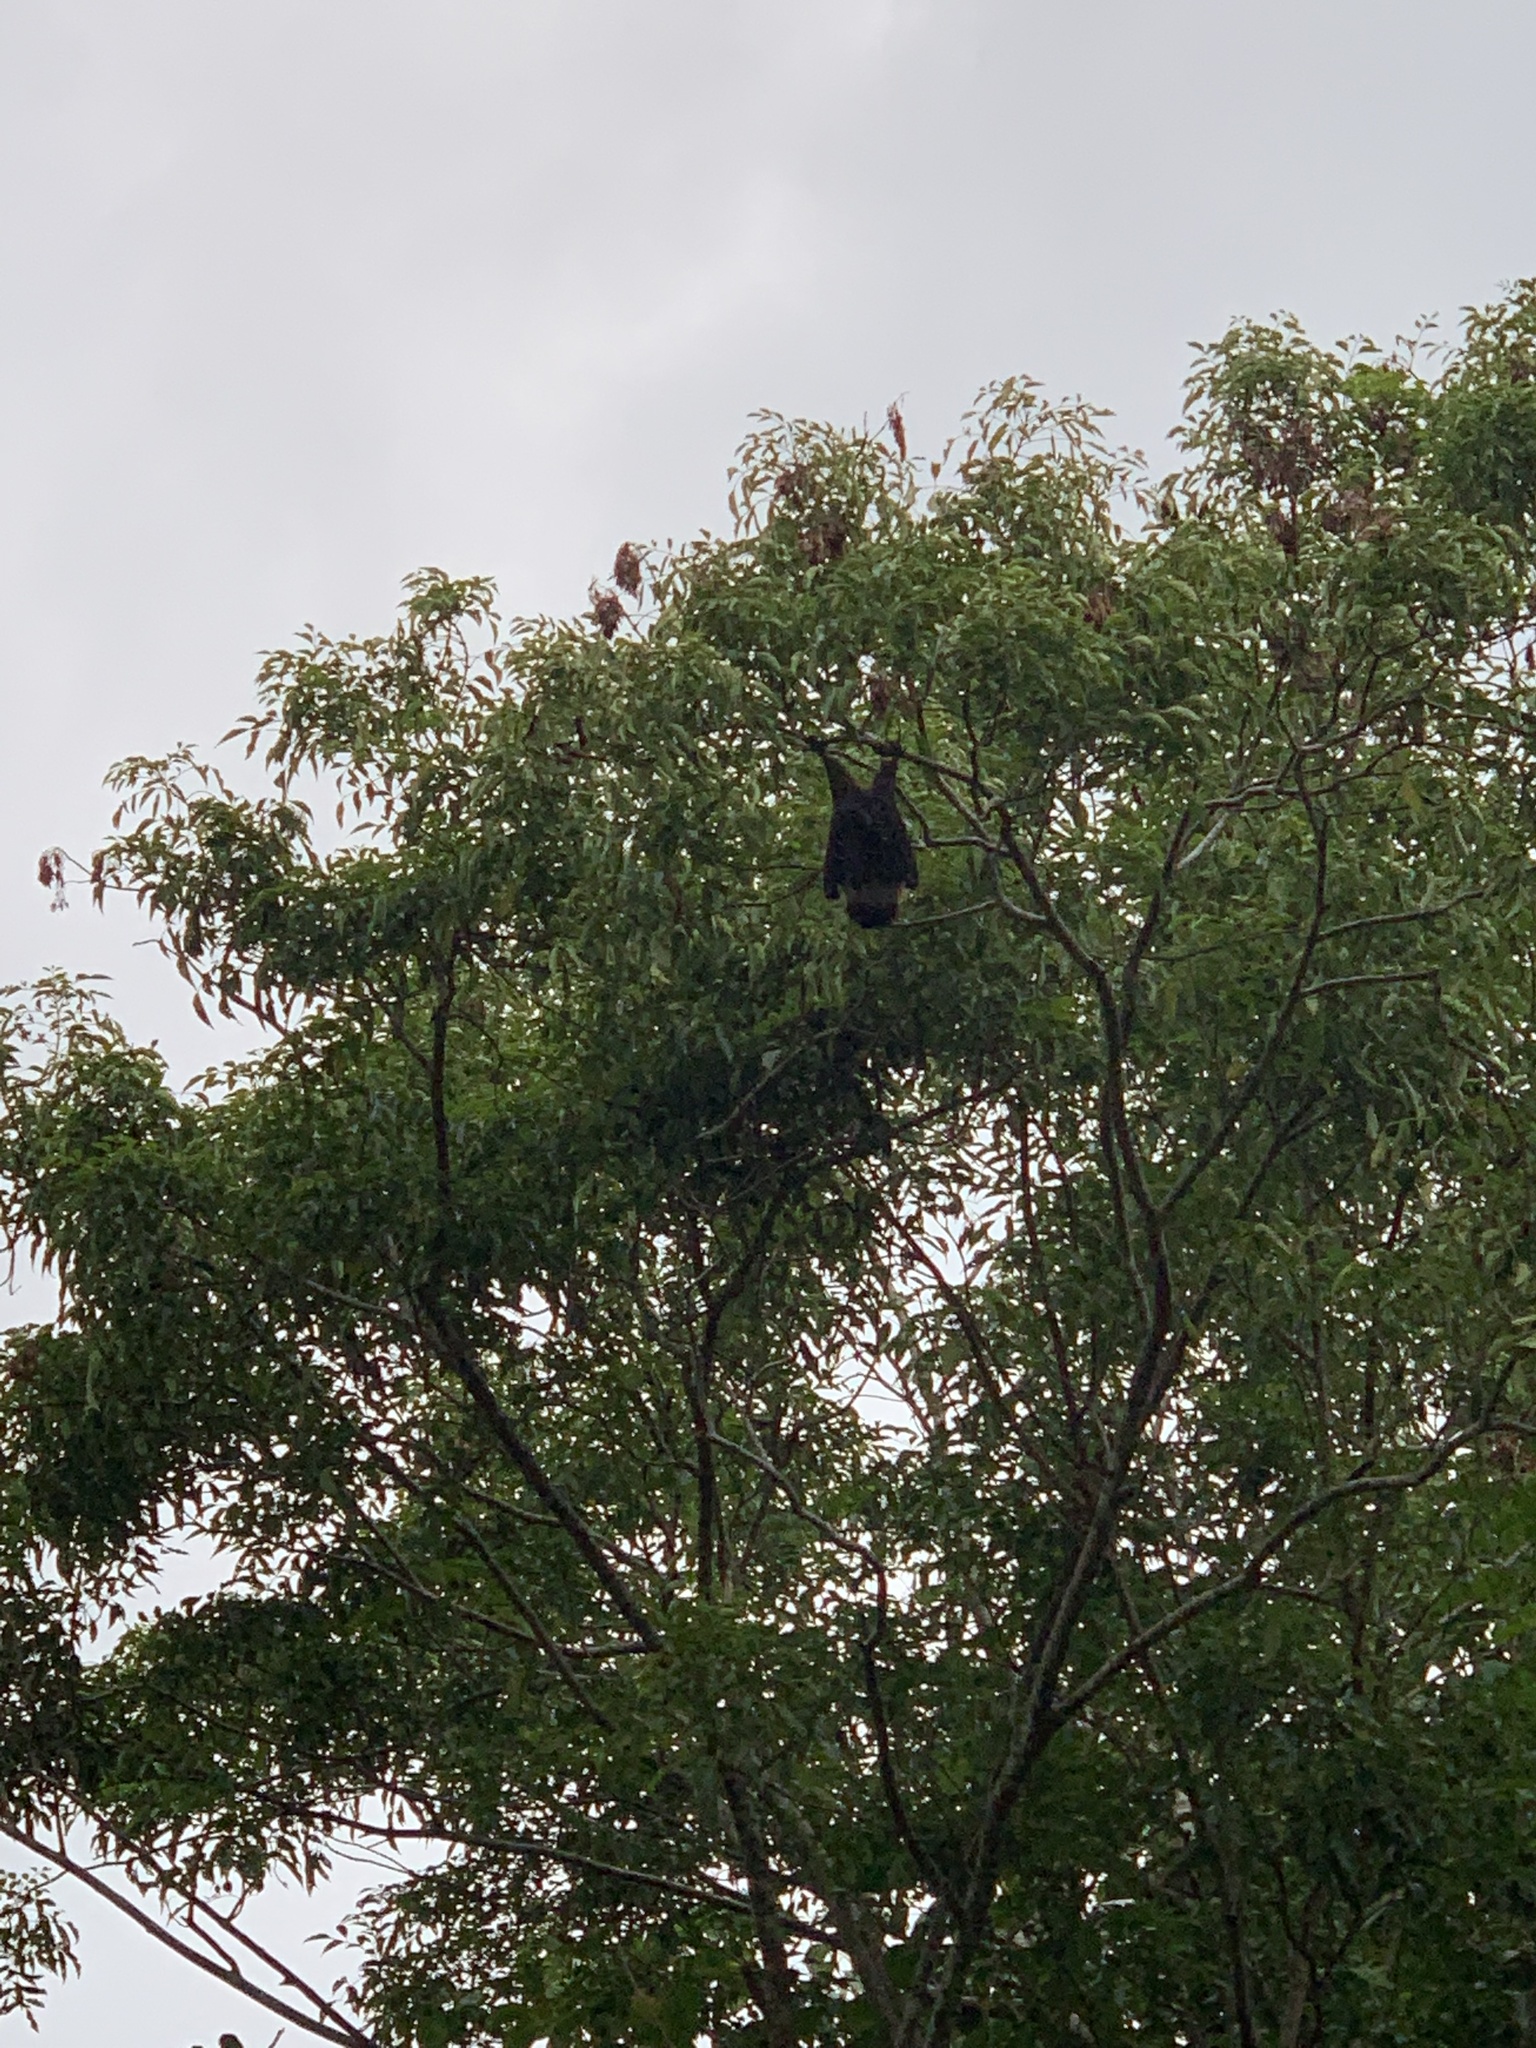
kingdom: Animalia
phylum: Chordata
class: Mammalia
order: Chiroptera
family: Pteropodidae
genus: Pteropus
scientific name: Pteropus dasymallus
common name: Ryukyu flying fox
